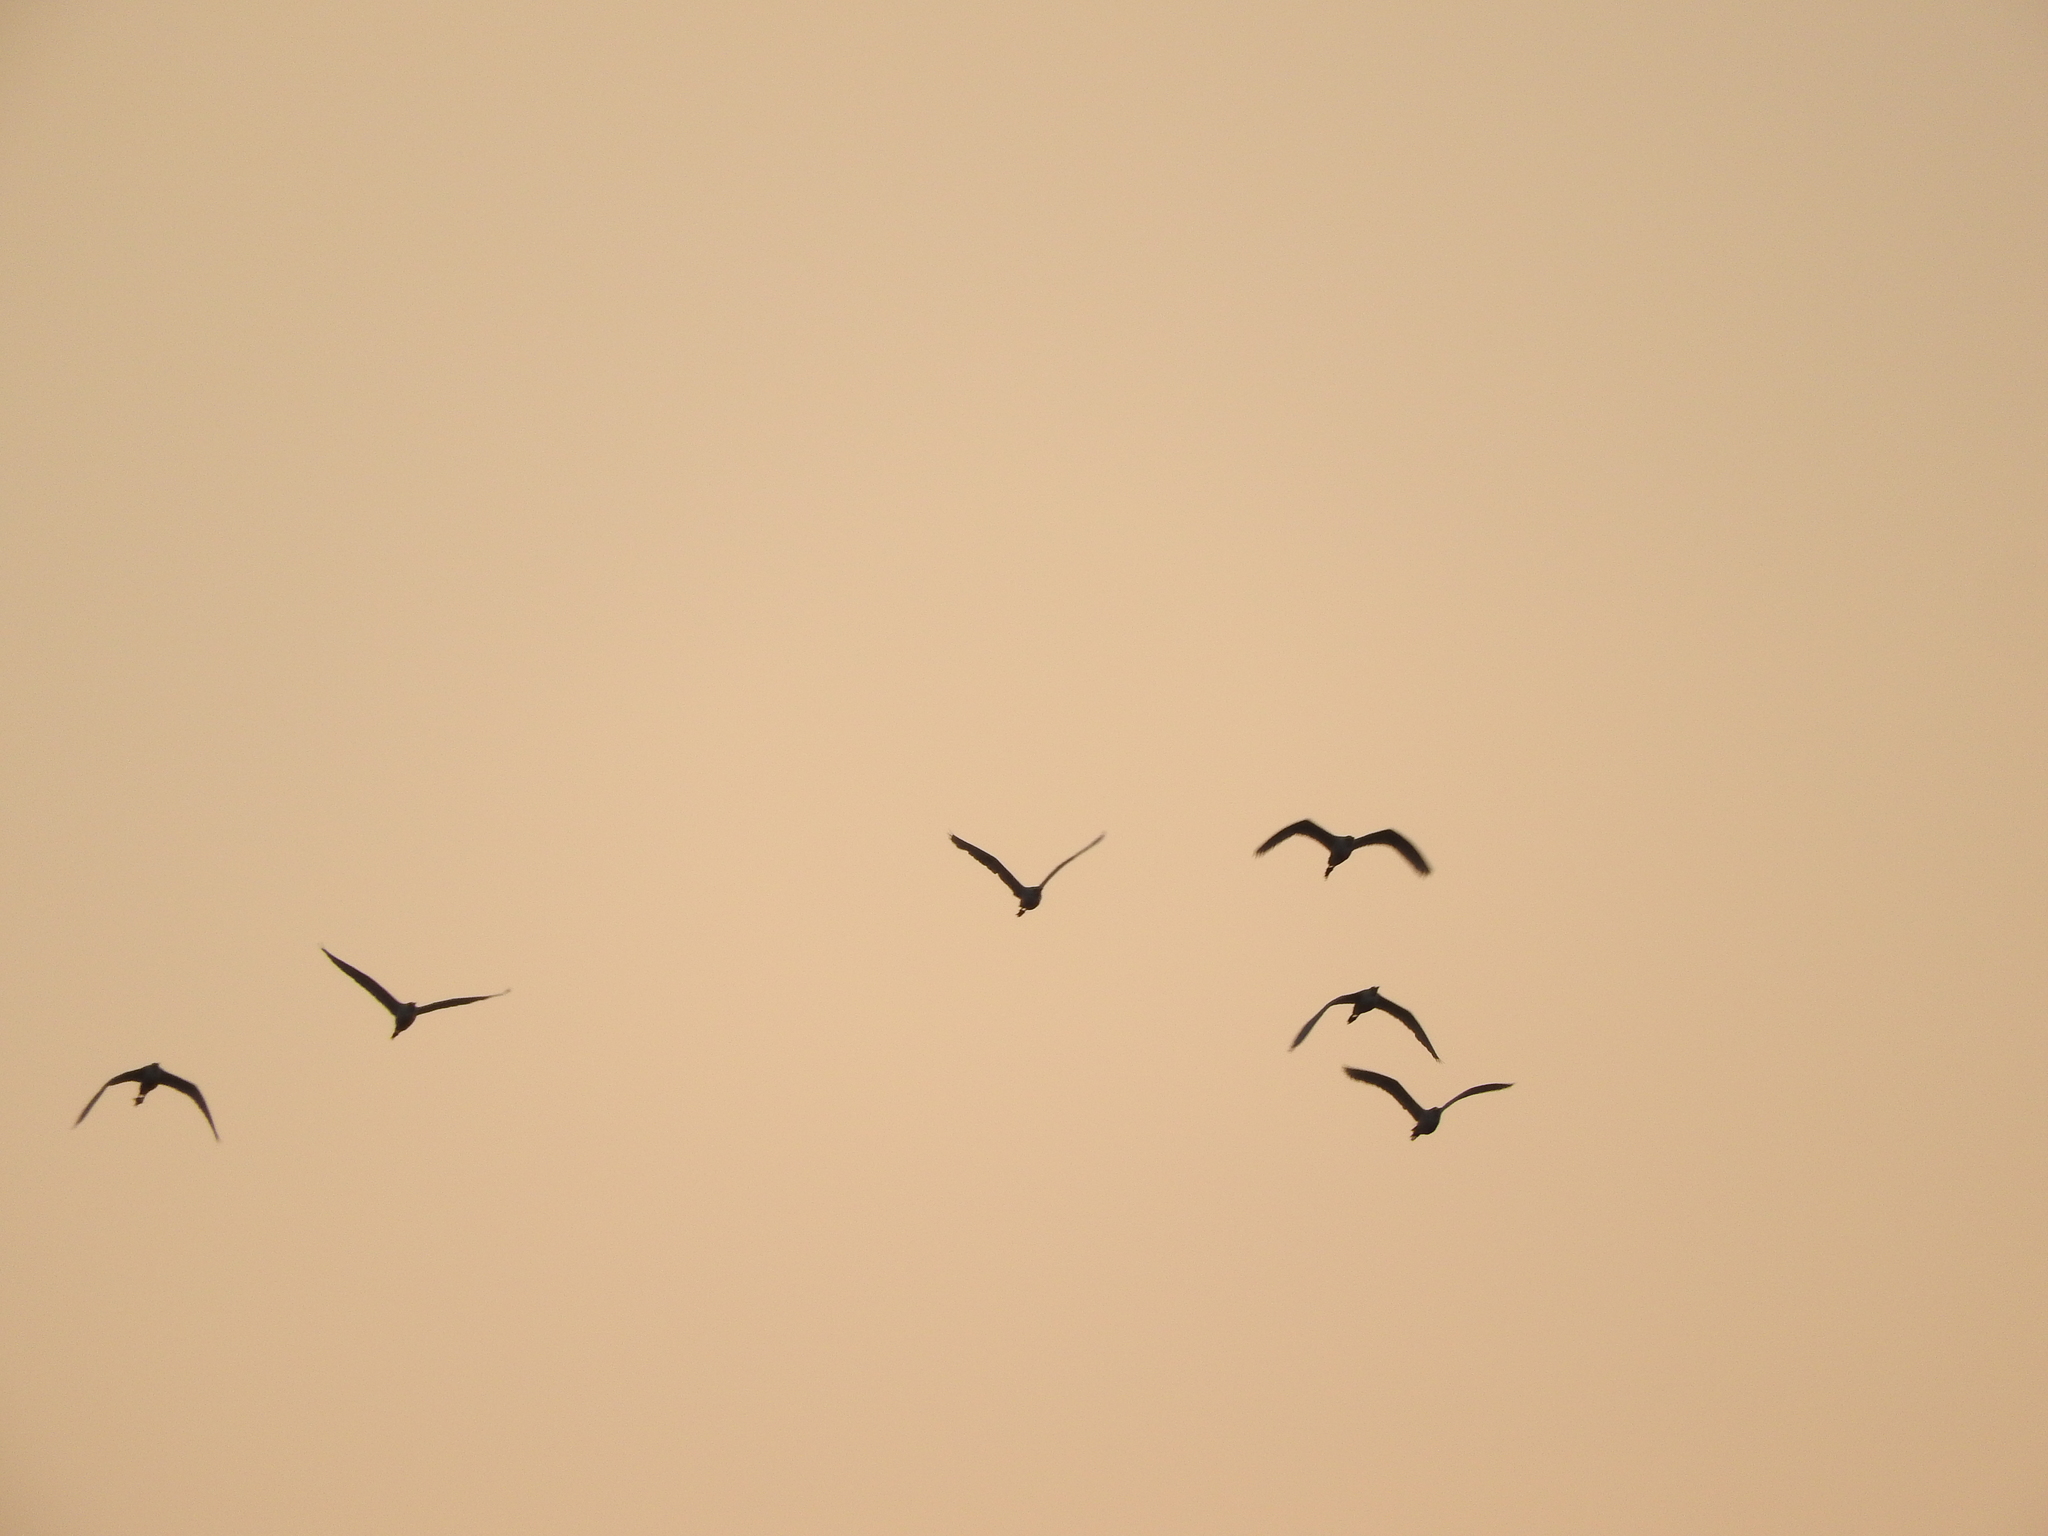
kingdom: Animalia
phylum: Chordata
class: Aves
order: Pelecaniformes
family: Ardeidae
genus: Bubulcus
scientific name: Bubulcus ibis
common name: Cattle egret
